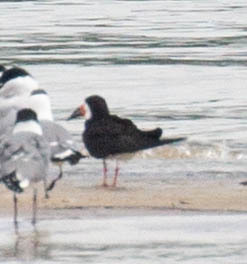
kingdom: Animalia
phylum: Chordata
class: Aves
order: Charadriiformes
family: Laridae
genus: Rynchops
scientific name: Rynchops niger
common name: Black skimmer
